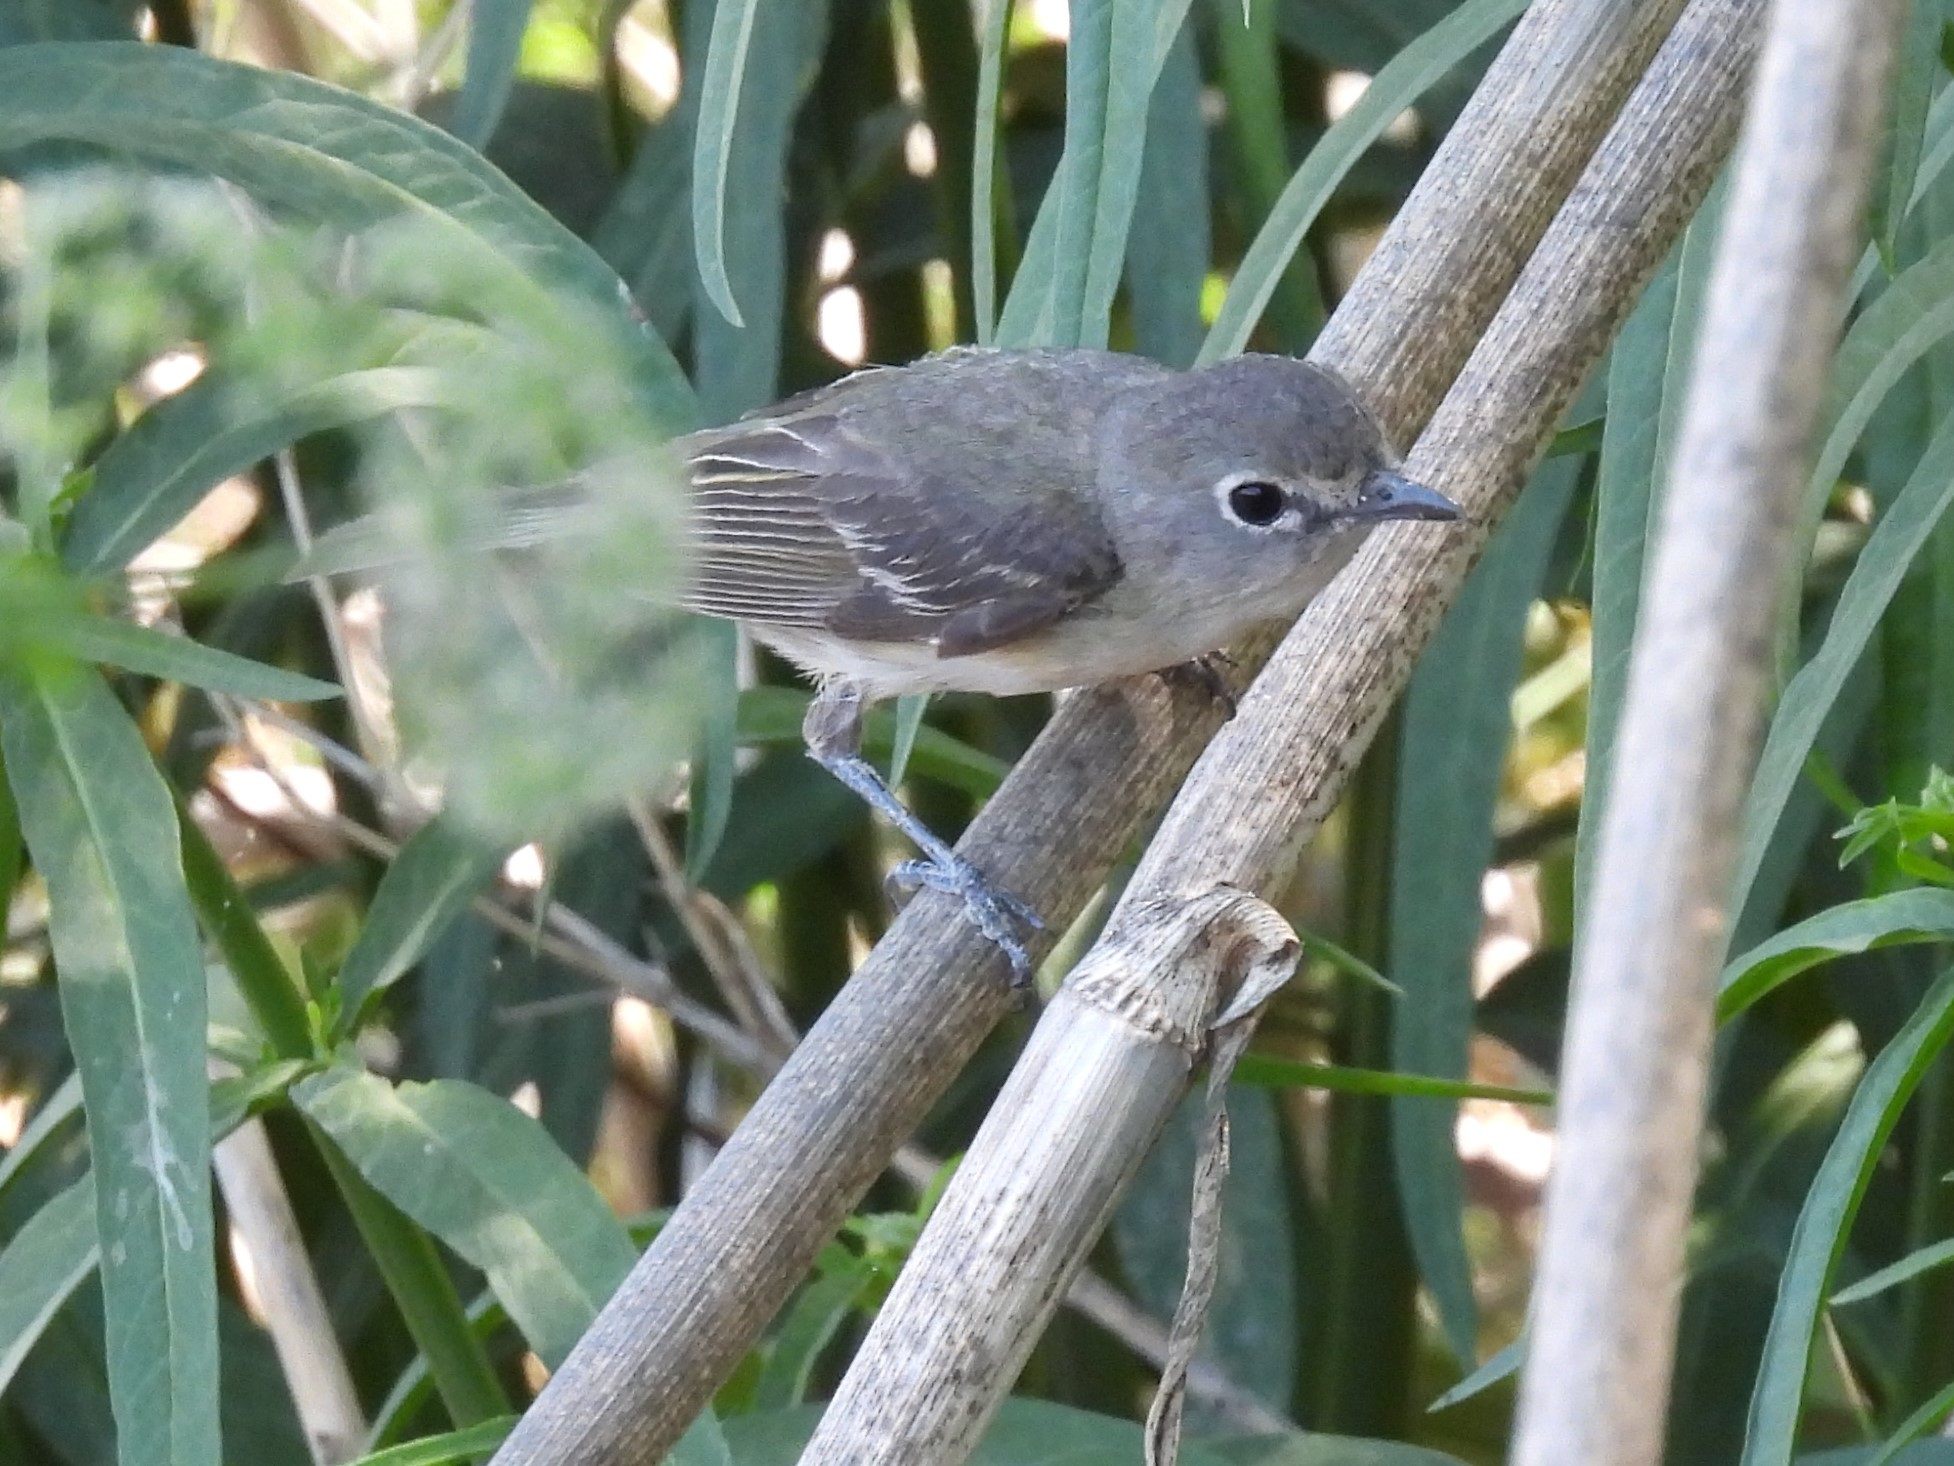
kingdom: Animalia
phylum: Chordata
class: Aves
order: Passeriformes
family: Vireonidae
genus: Vireo
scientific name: Vireo cassinii
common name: Cassin's vireo
